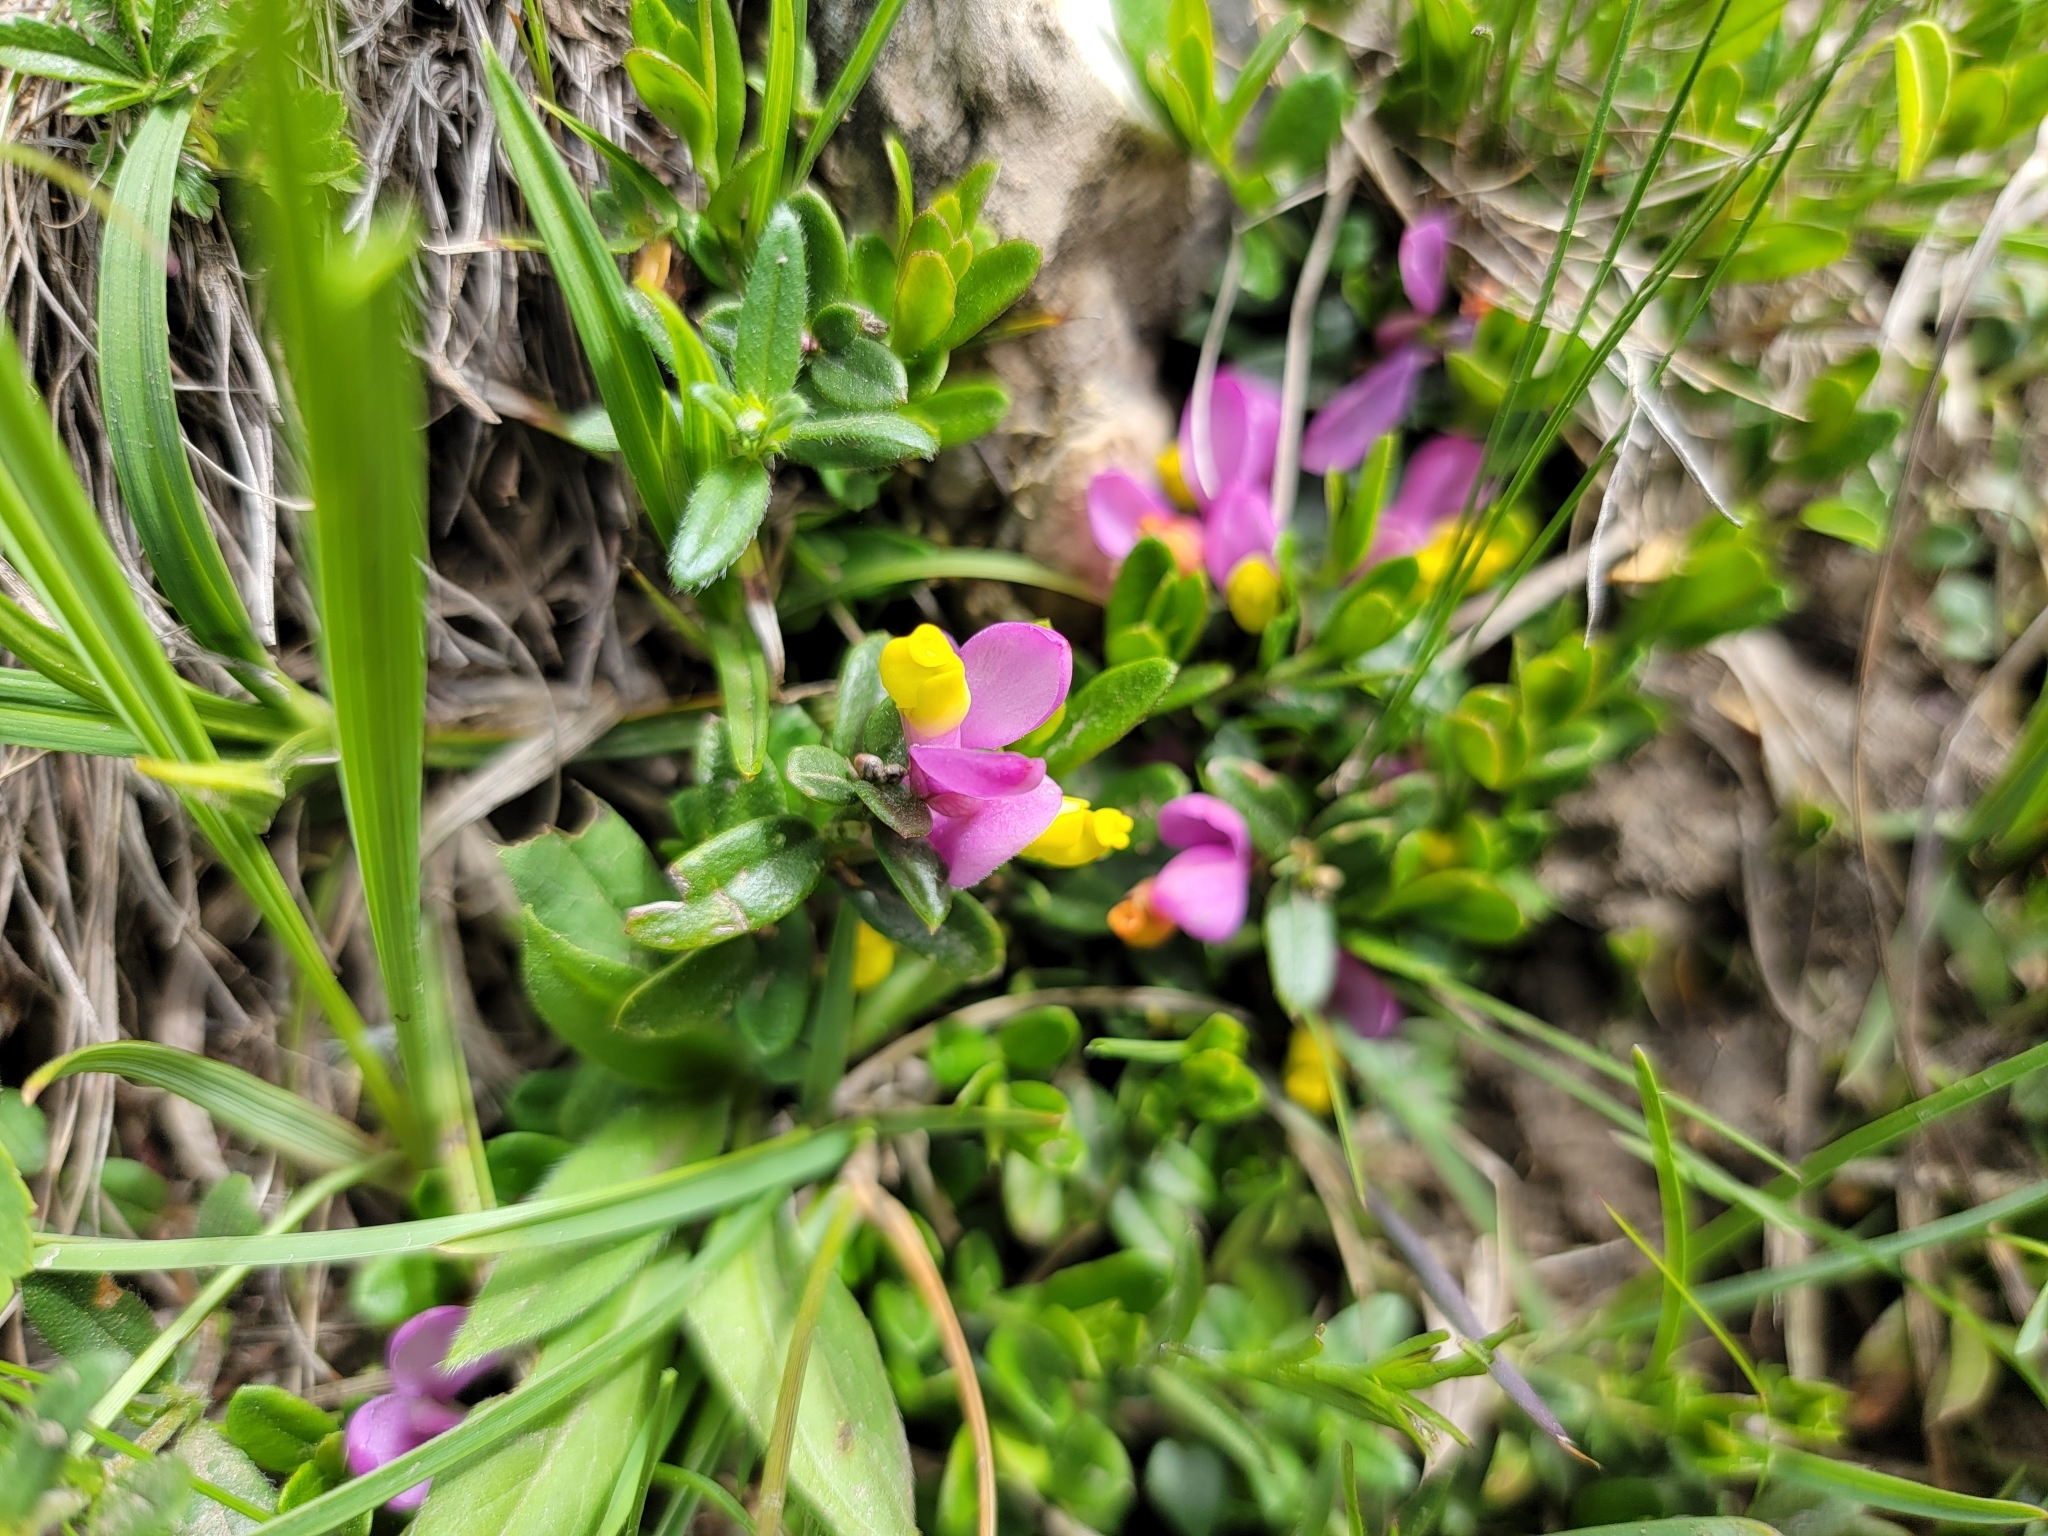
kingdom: Plantae
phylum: Tracheophyta
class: Magnoliopsida
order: Fabales
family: Polygalaceae
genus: Polygaloides
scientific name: Polygaloides chamaebuxus
